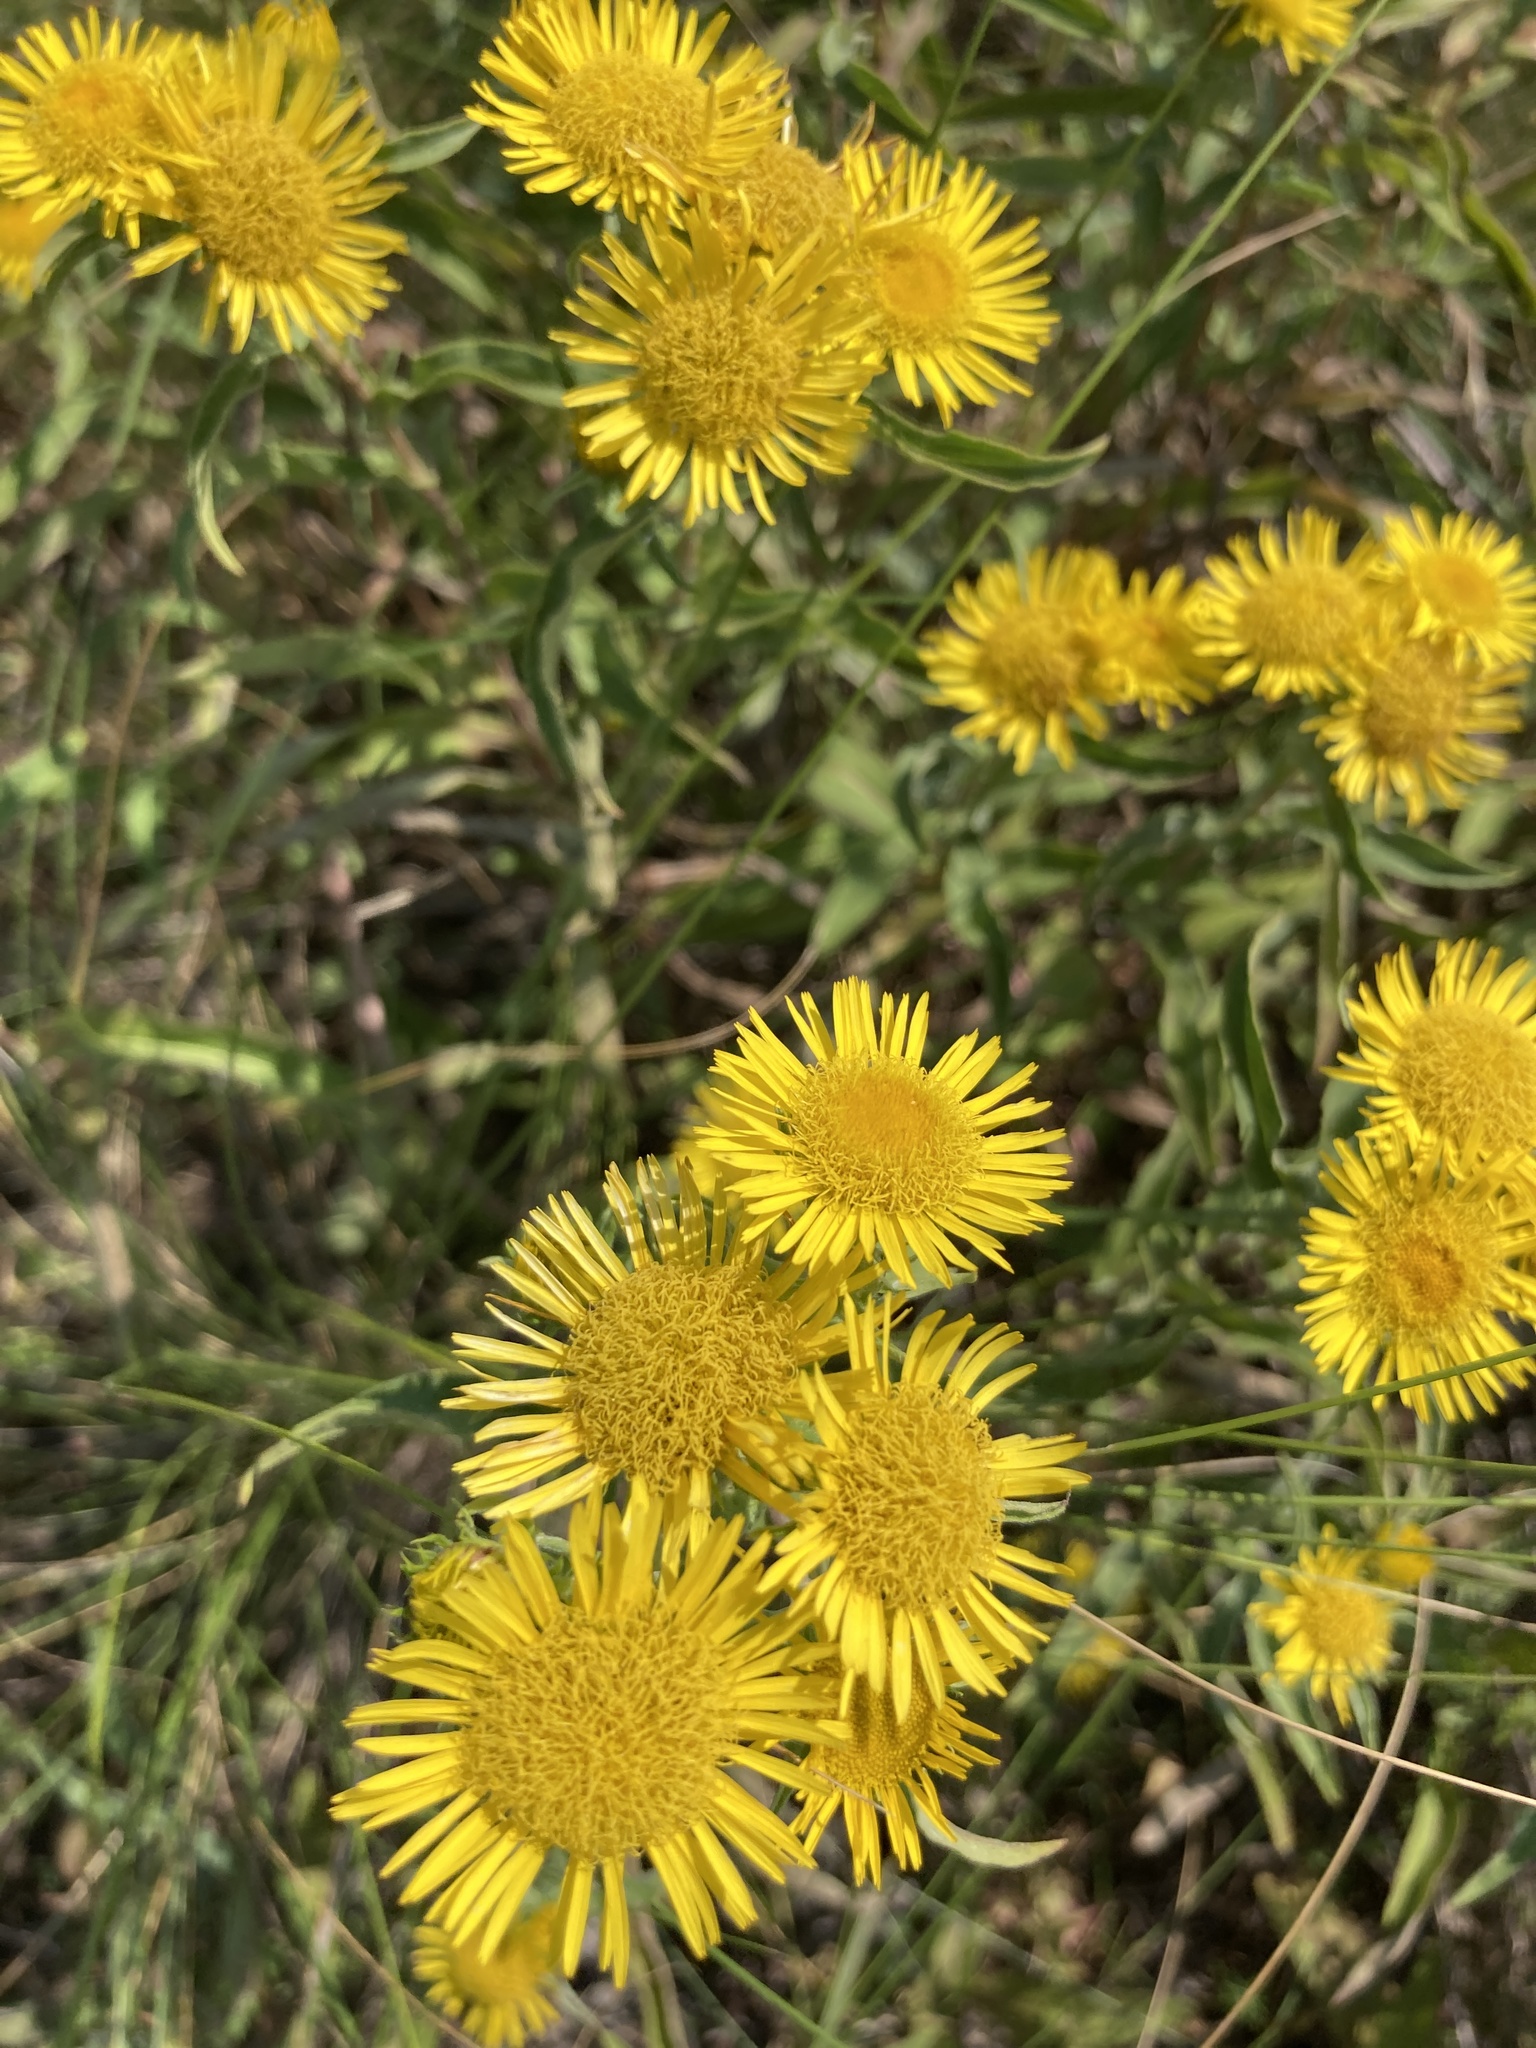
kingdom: Plantae
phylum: Tracheophyta
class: Magnoliopsida
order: Asterales
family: Asteraceae
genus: Pentanema
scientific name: Pentanema britannicum
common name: British elecampane
